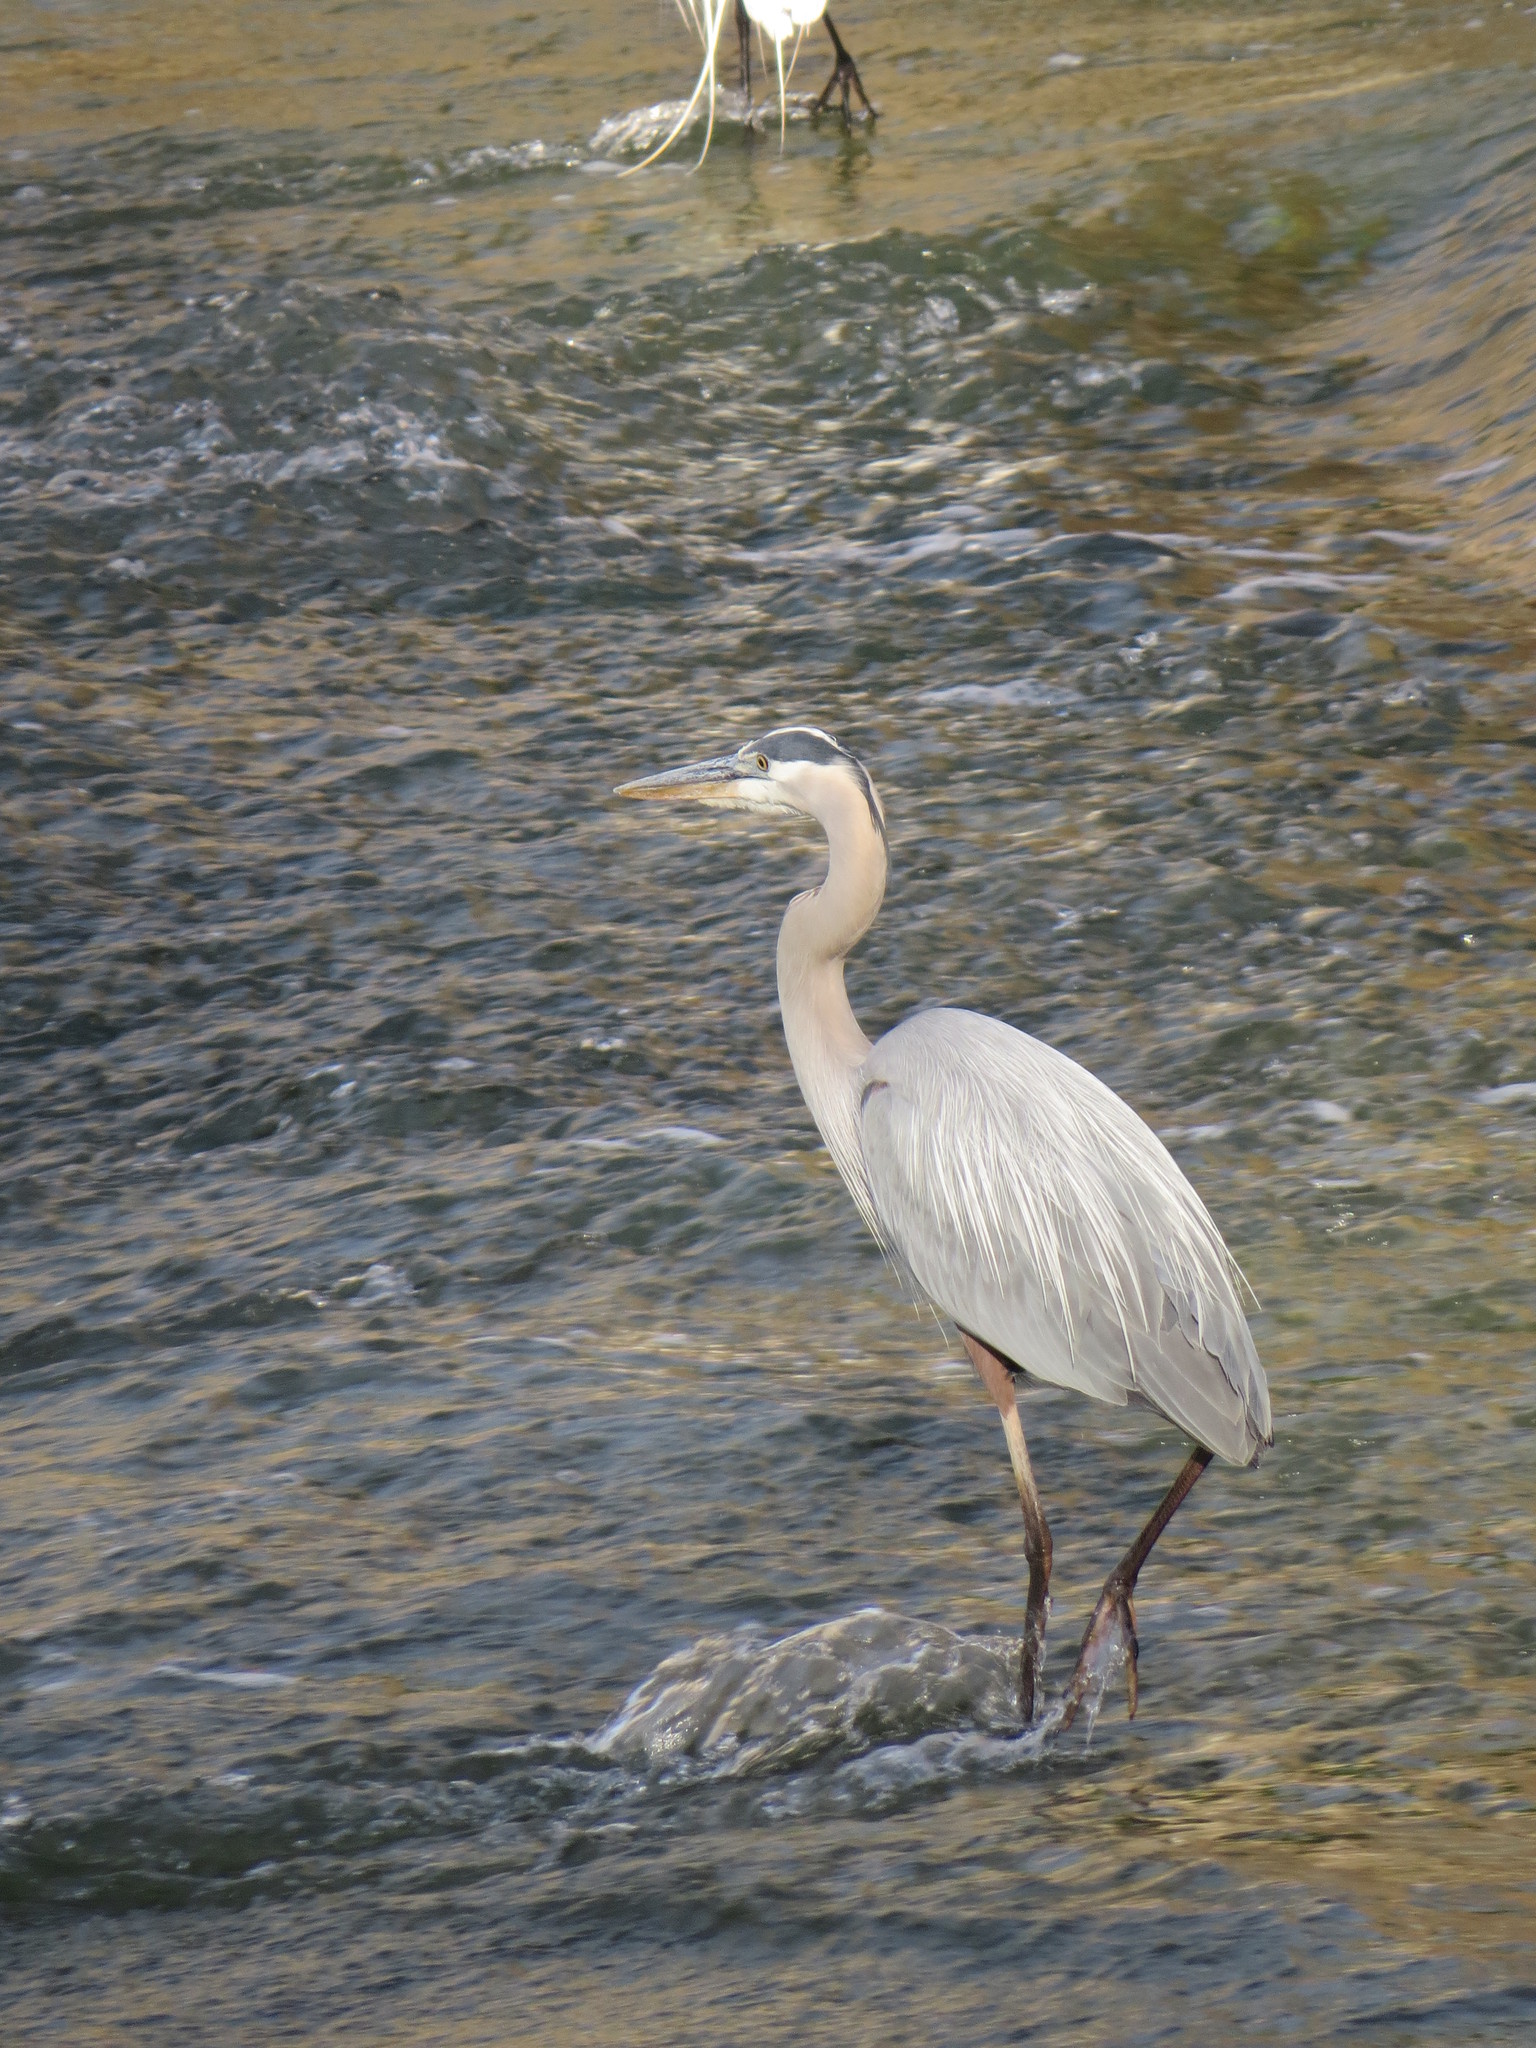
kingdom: Animalia
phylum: Chordata
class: Aves
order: Pelecaniformes
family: Ardeidae
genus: Ardea
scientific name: Ardea herodias
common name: Great blue heron
